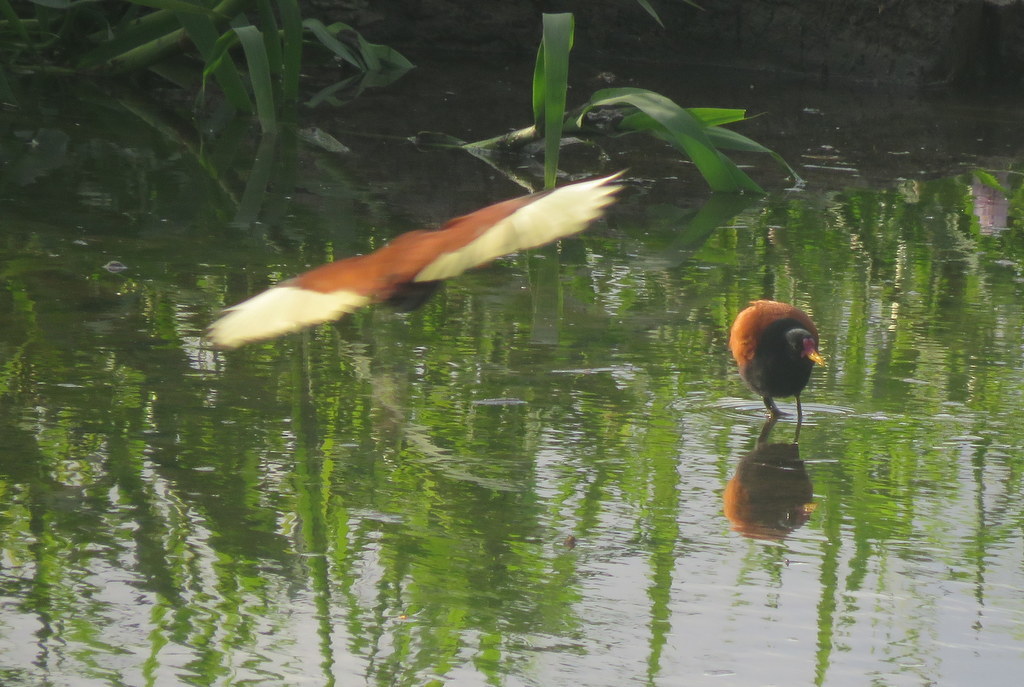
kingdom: Animalia
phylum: Chordata
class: Aves
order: Charadriiformes
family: Jacanidae
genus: Jacana
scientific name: Jacana jacana
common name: Wattled jacana
